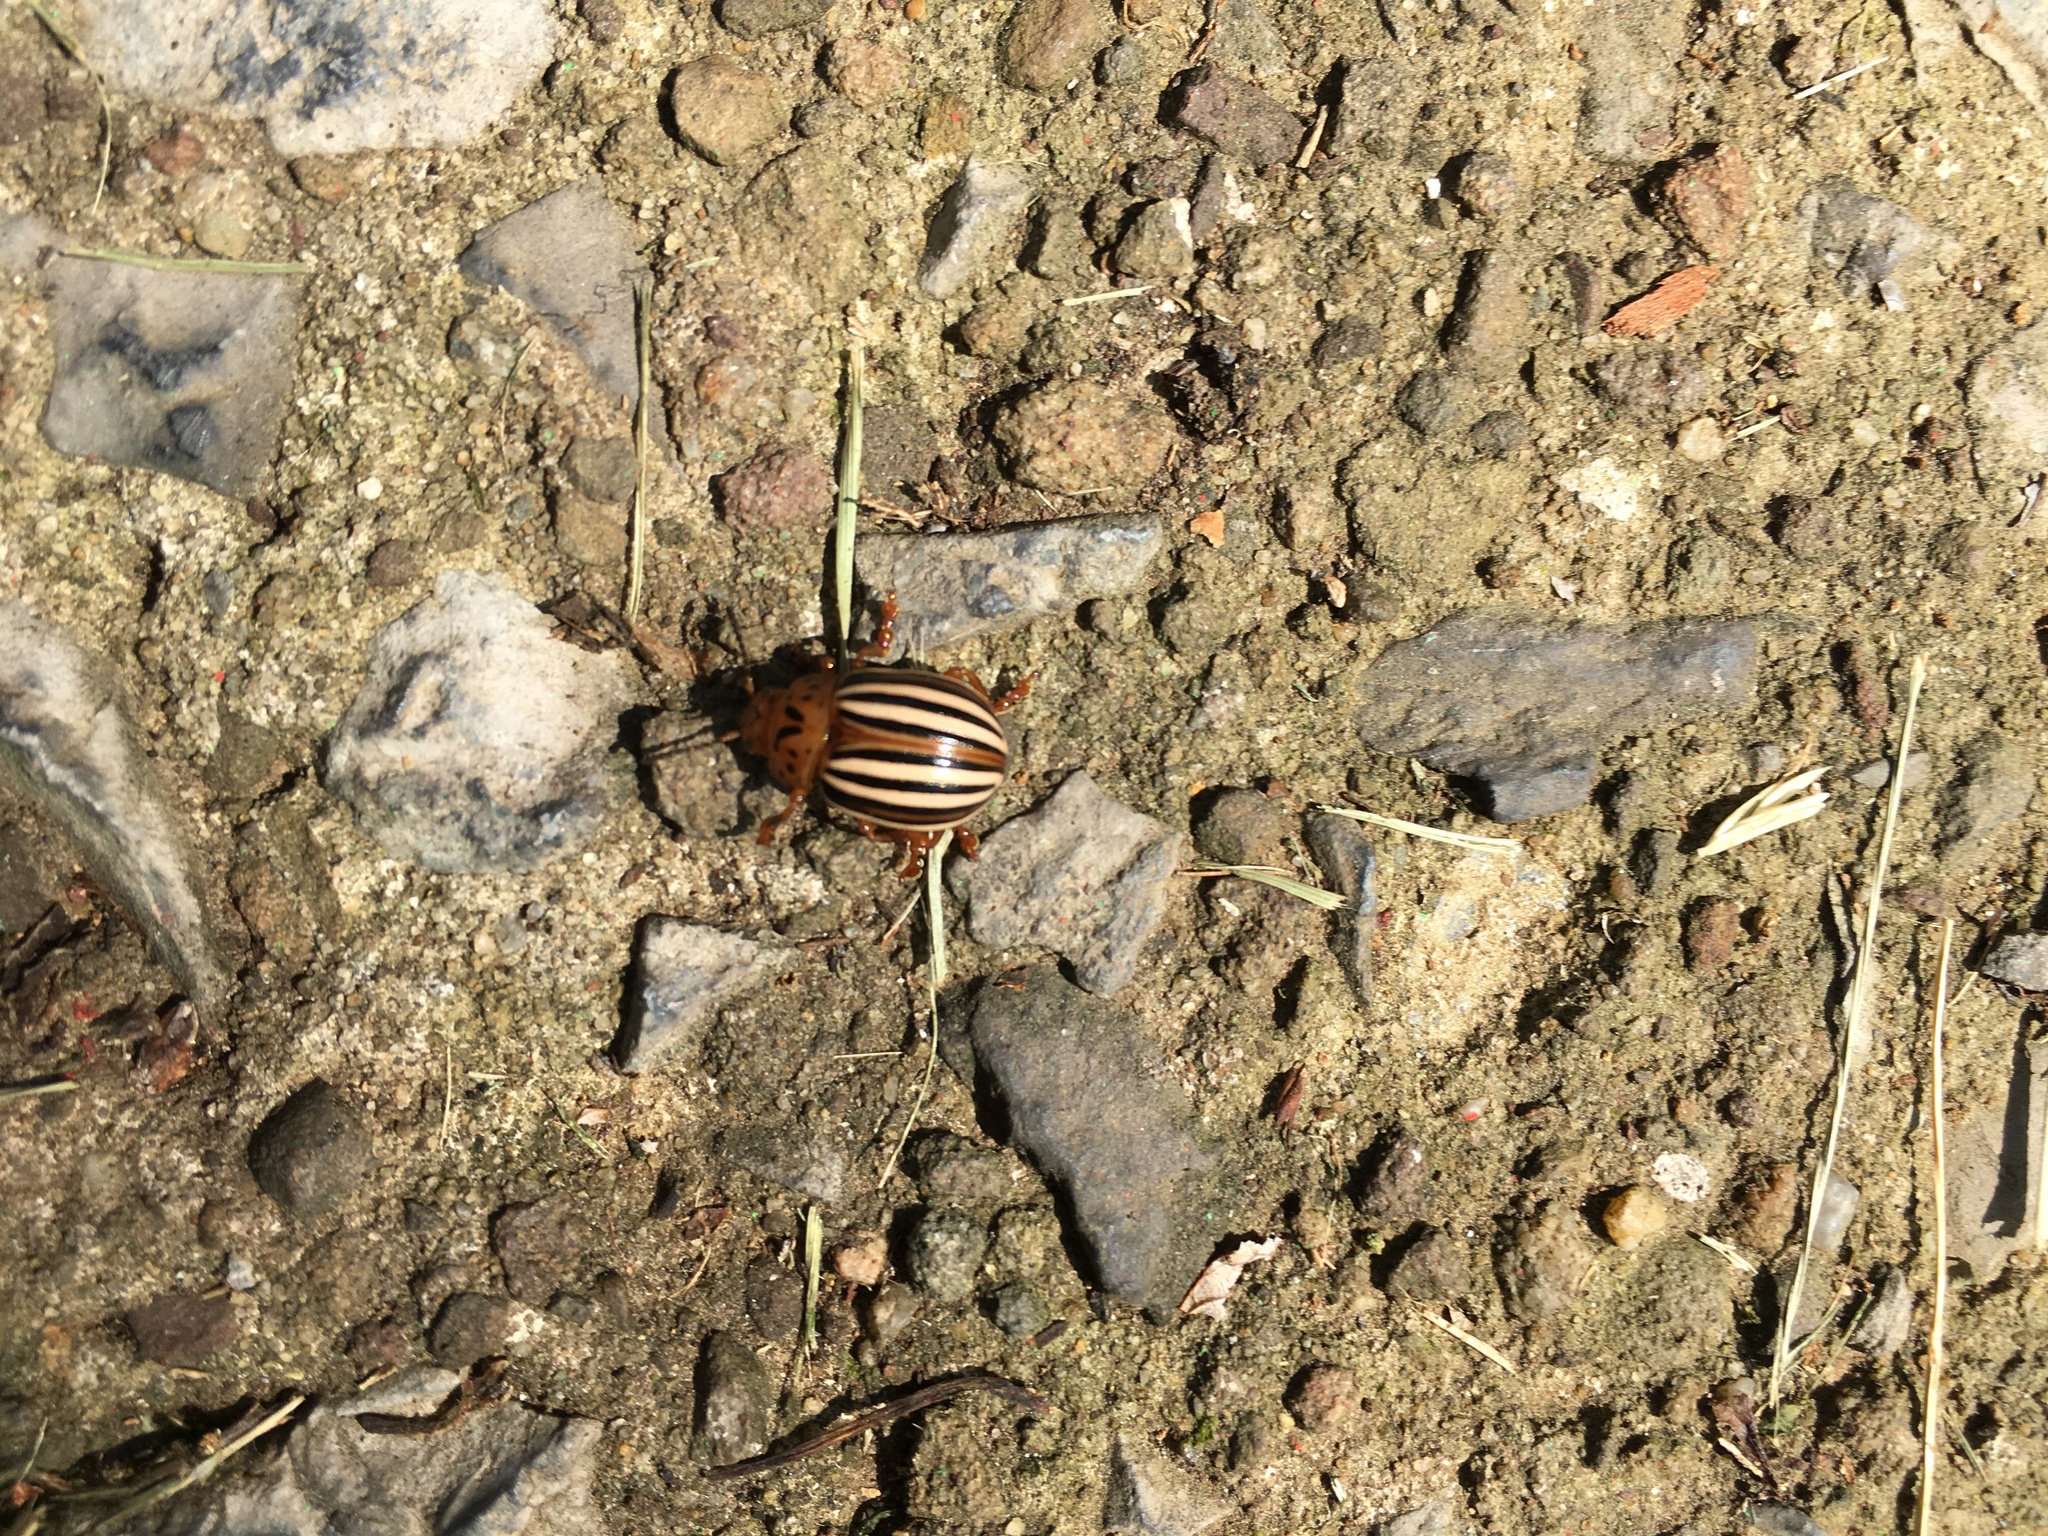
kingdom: Animalia
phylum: Arthropoda
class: Insecta
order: Coleoptera
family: Chrysomelidae
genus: Leptinotarsa
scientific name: Leptinotarsa juncta
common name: False potato beetle
